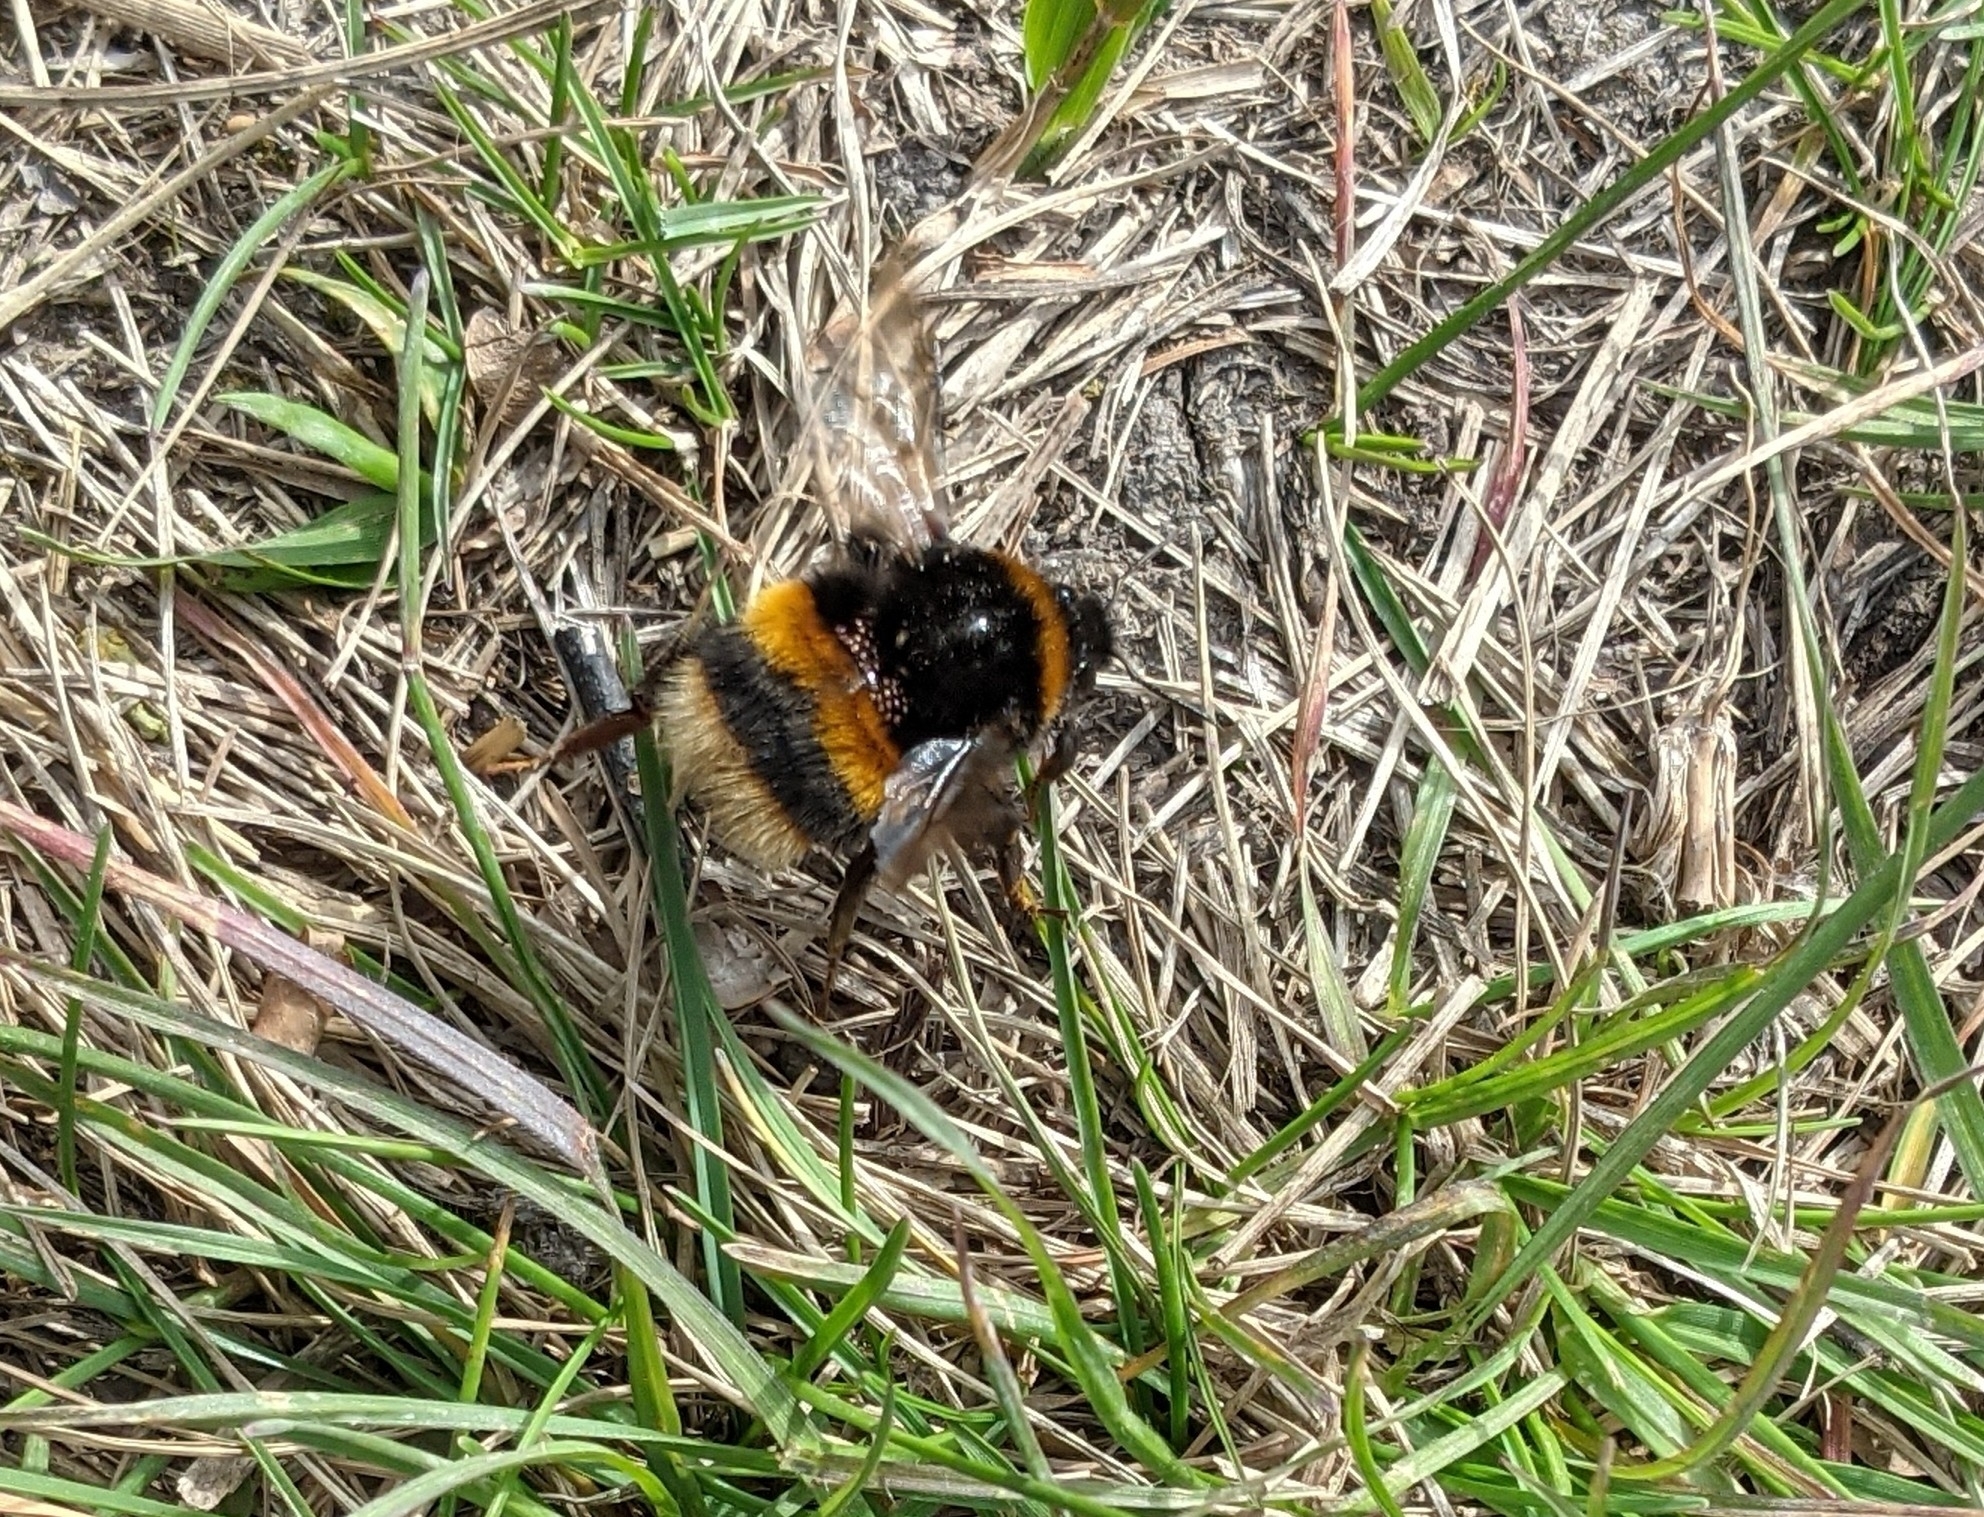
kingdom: Animalia
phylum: Arthropoda
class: Insecta
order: Hymenoptera
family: Apidae
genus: Bombus
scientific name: Bombus terrestris
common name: Buff-tailed bumblebee
